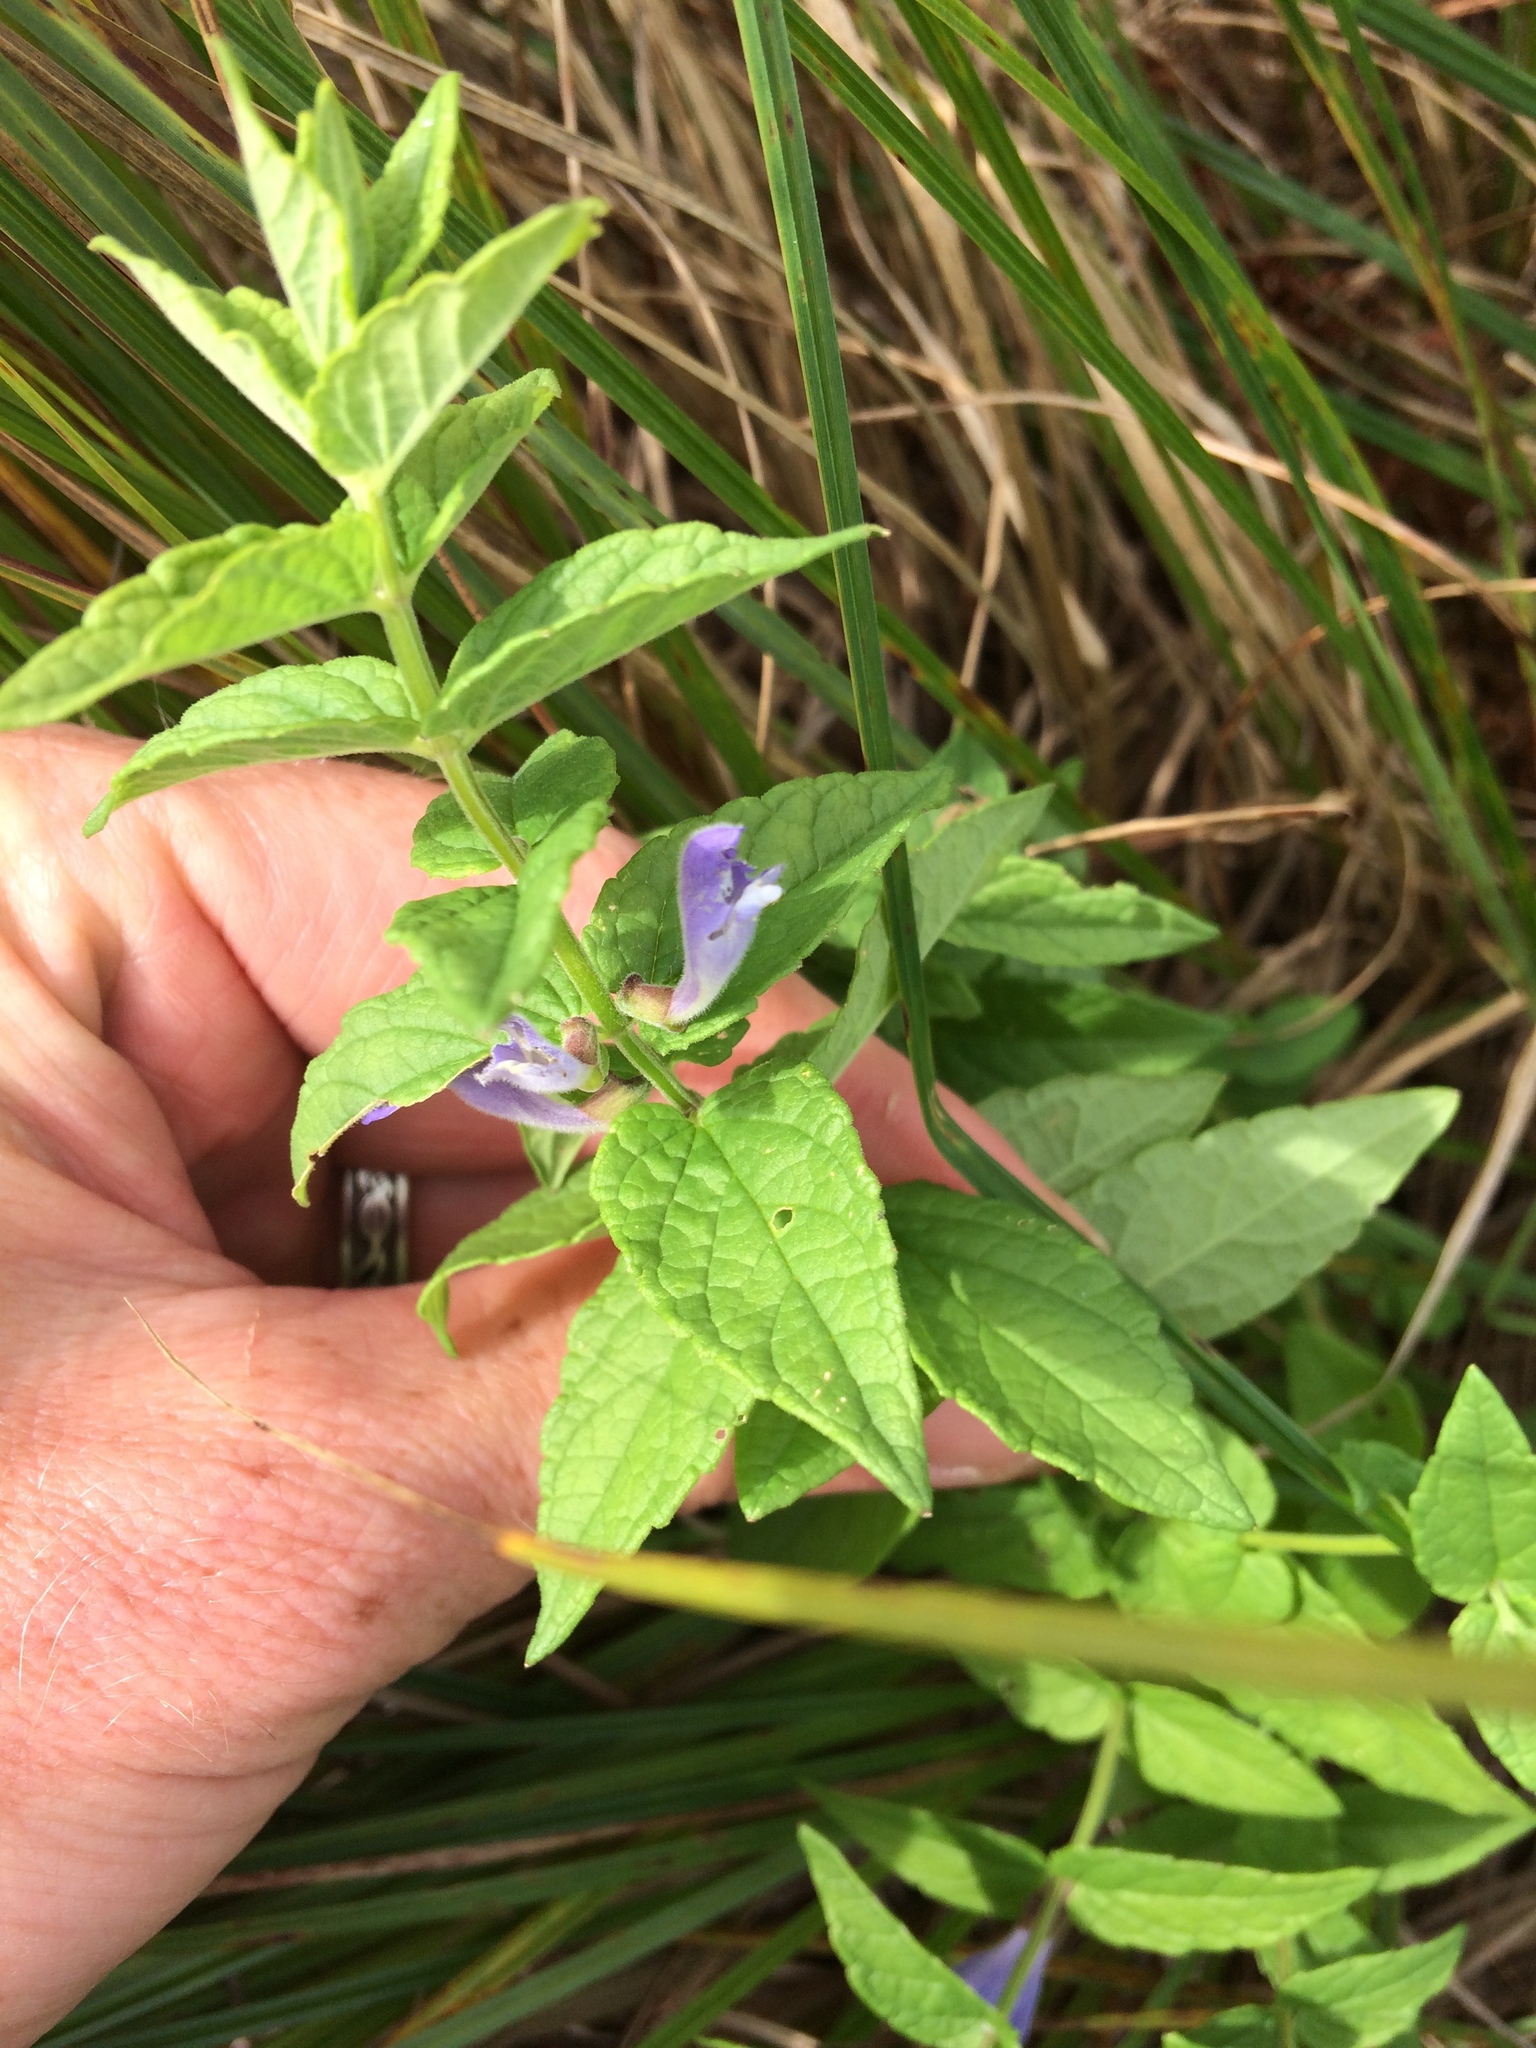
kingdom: Plantae
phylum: Tracheophyta
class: Magnoliopsida
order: Lamiales
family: Lamiaceae
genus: Scutellaria
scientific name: Scutellaria galericulata
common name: Skullcap
